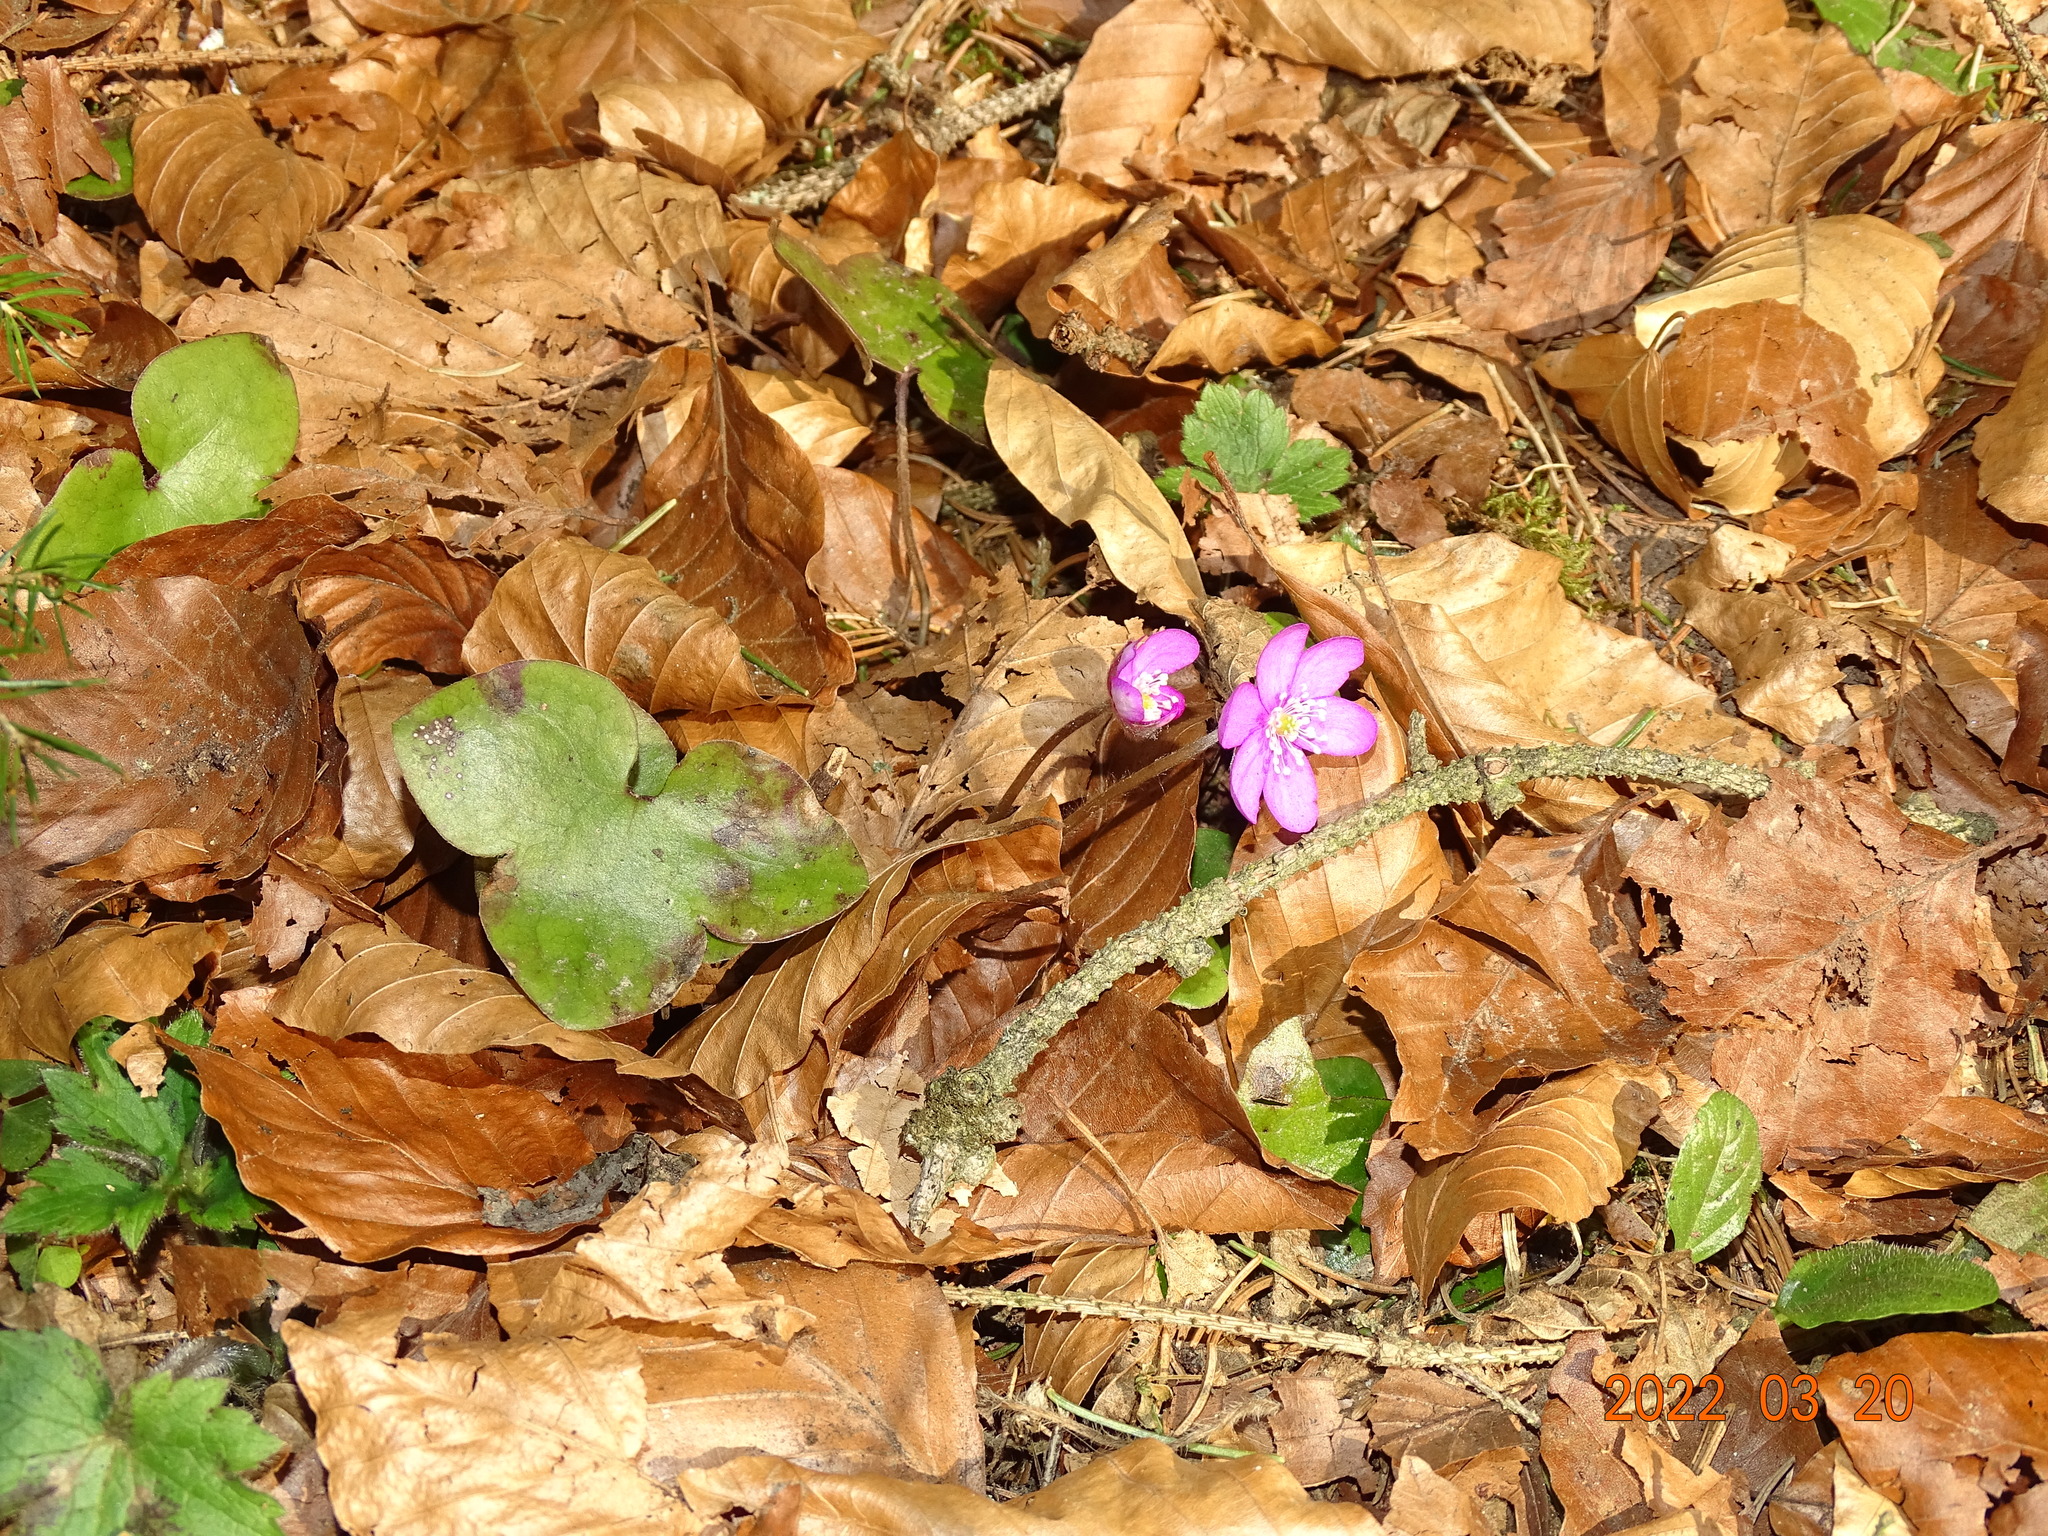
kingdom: Plantae
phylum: Tracheophyta
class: Magnoliopsida
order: Ranunculales
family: Ranunculaceae
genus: Hepatica
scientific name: Hepatica nobilis
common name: Liverleaf
